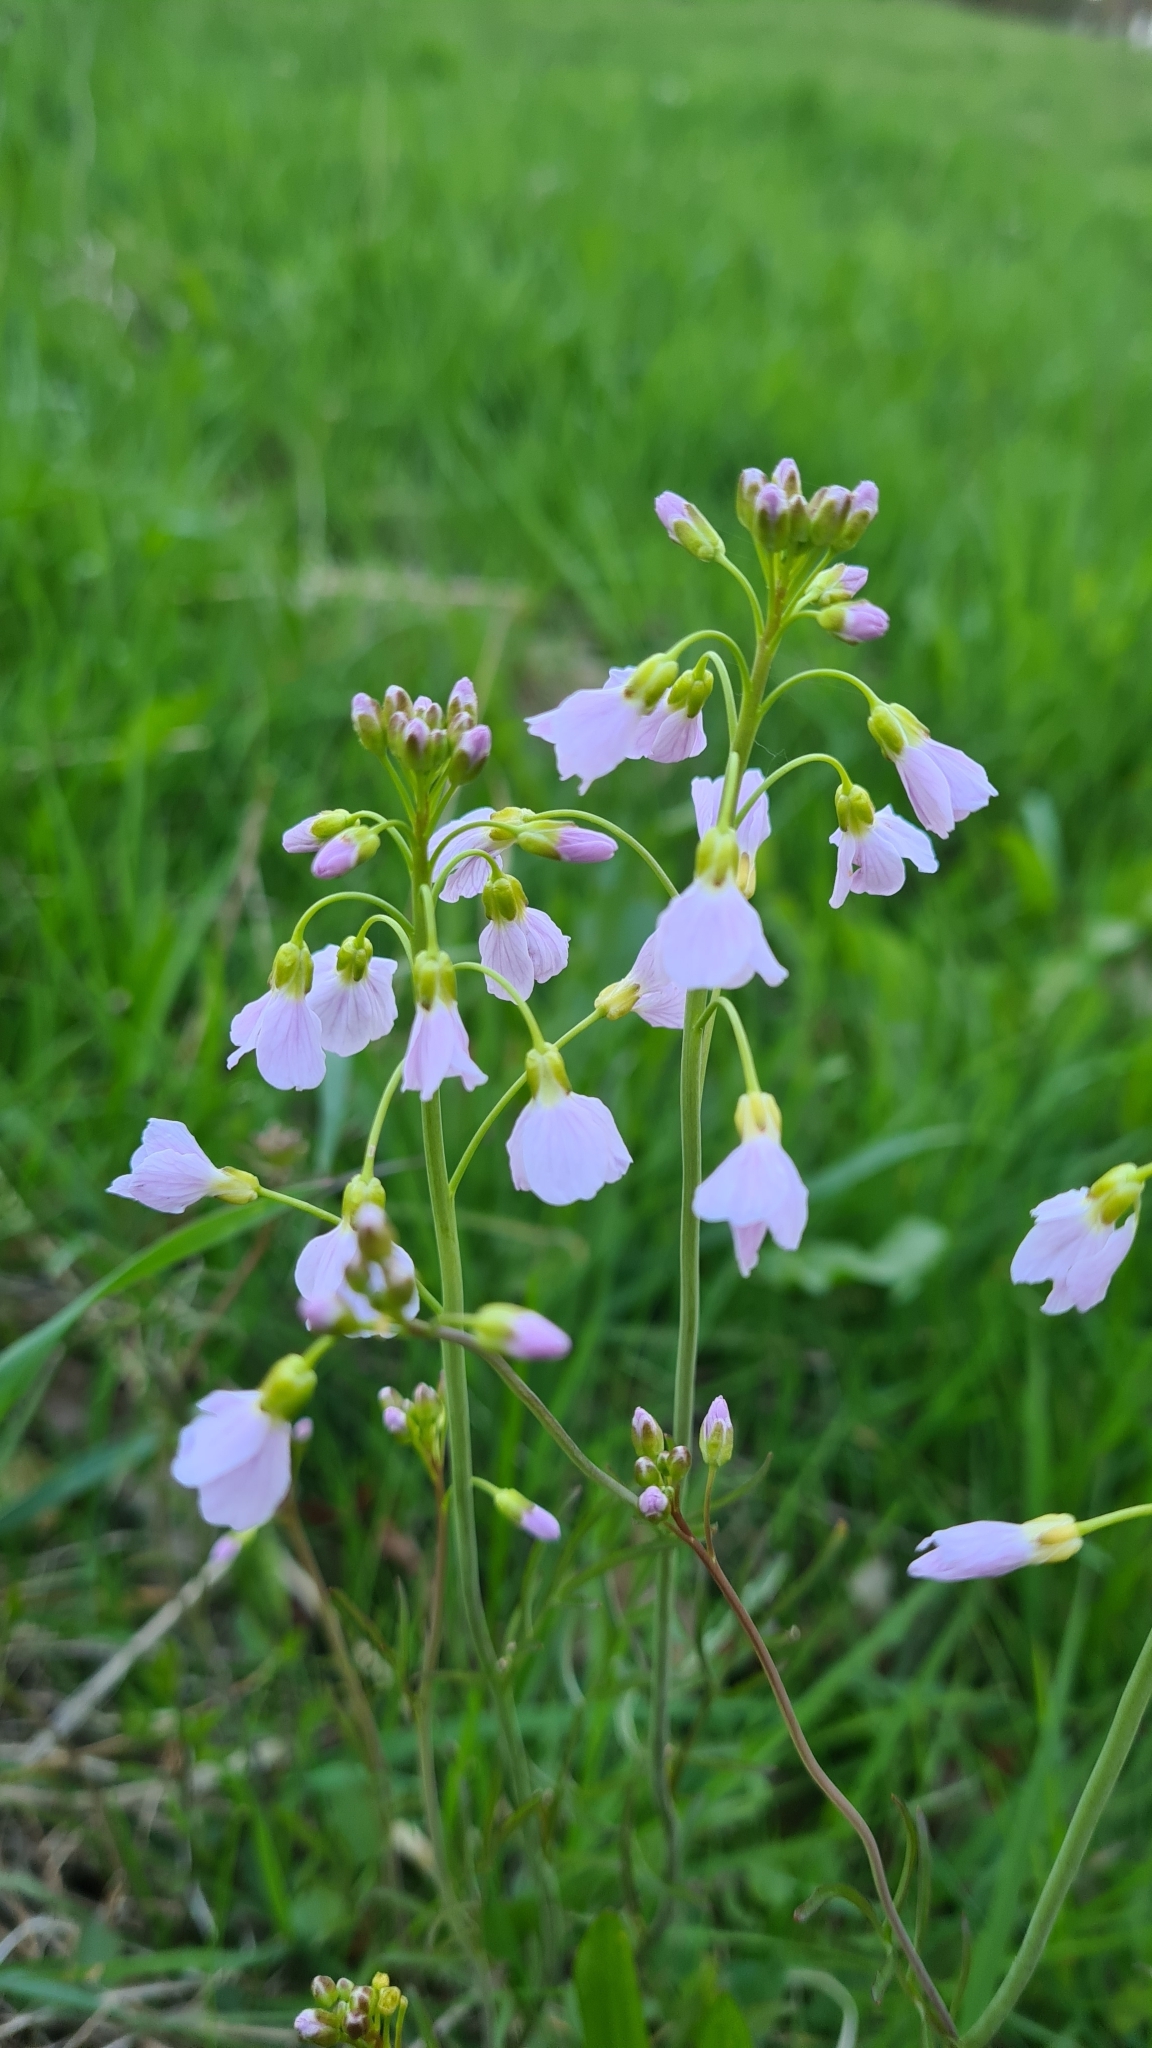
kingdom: Plantae
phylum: Tracheophyta
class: Magnoliopsida
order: Brassicales
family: Brassicaceae
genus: Cardamine
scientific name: Cardamine pratensis
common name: Cuckoo flower
